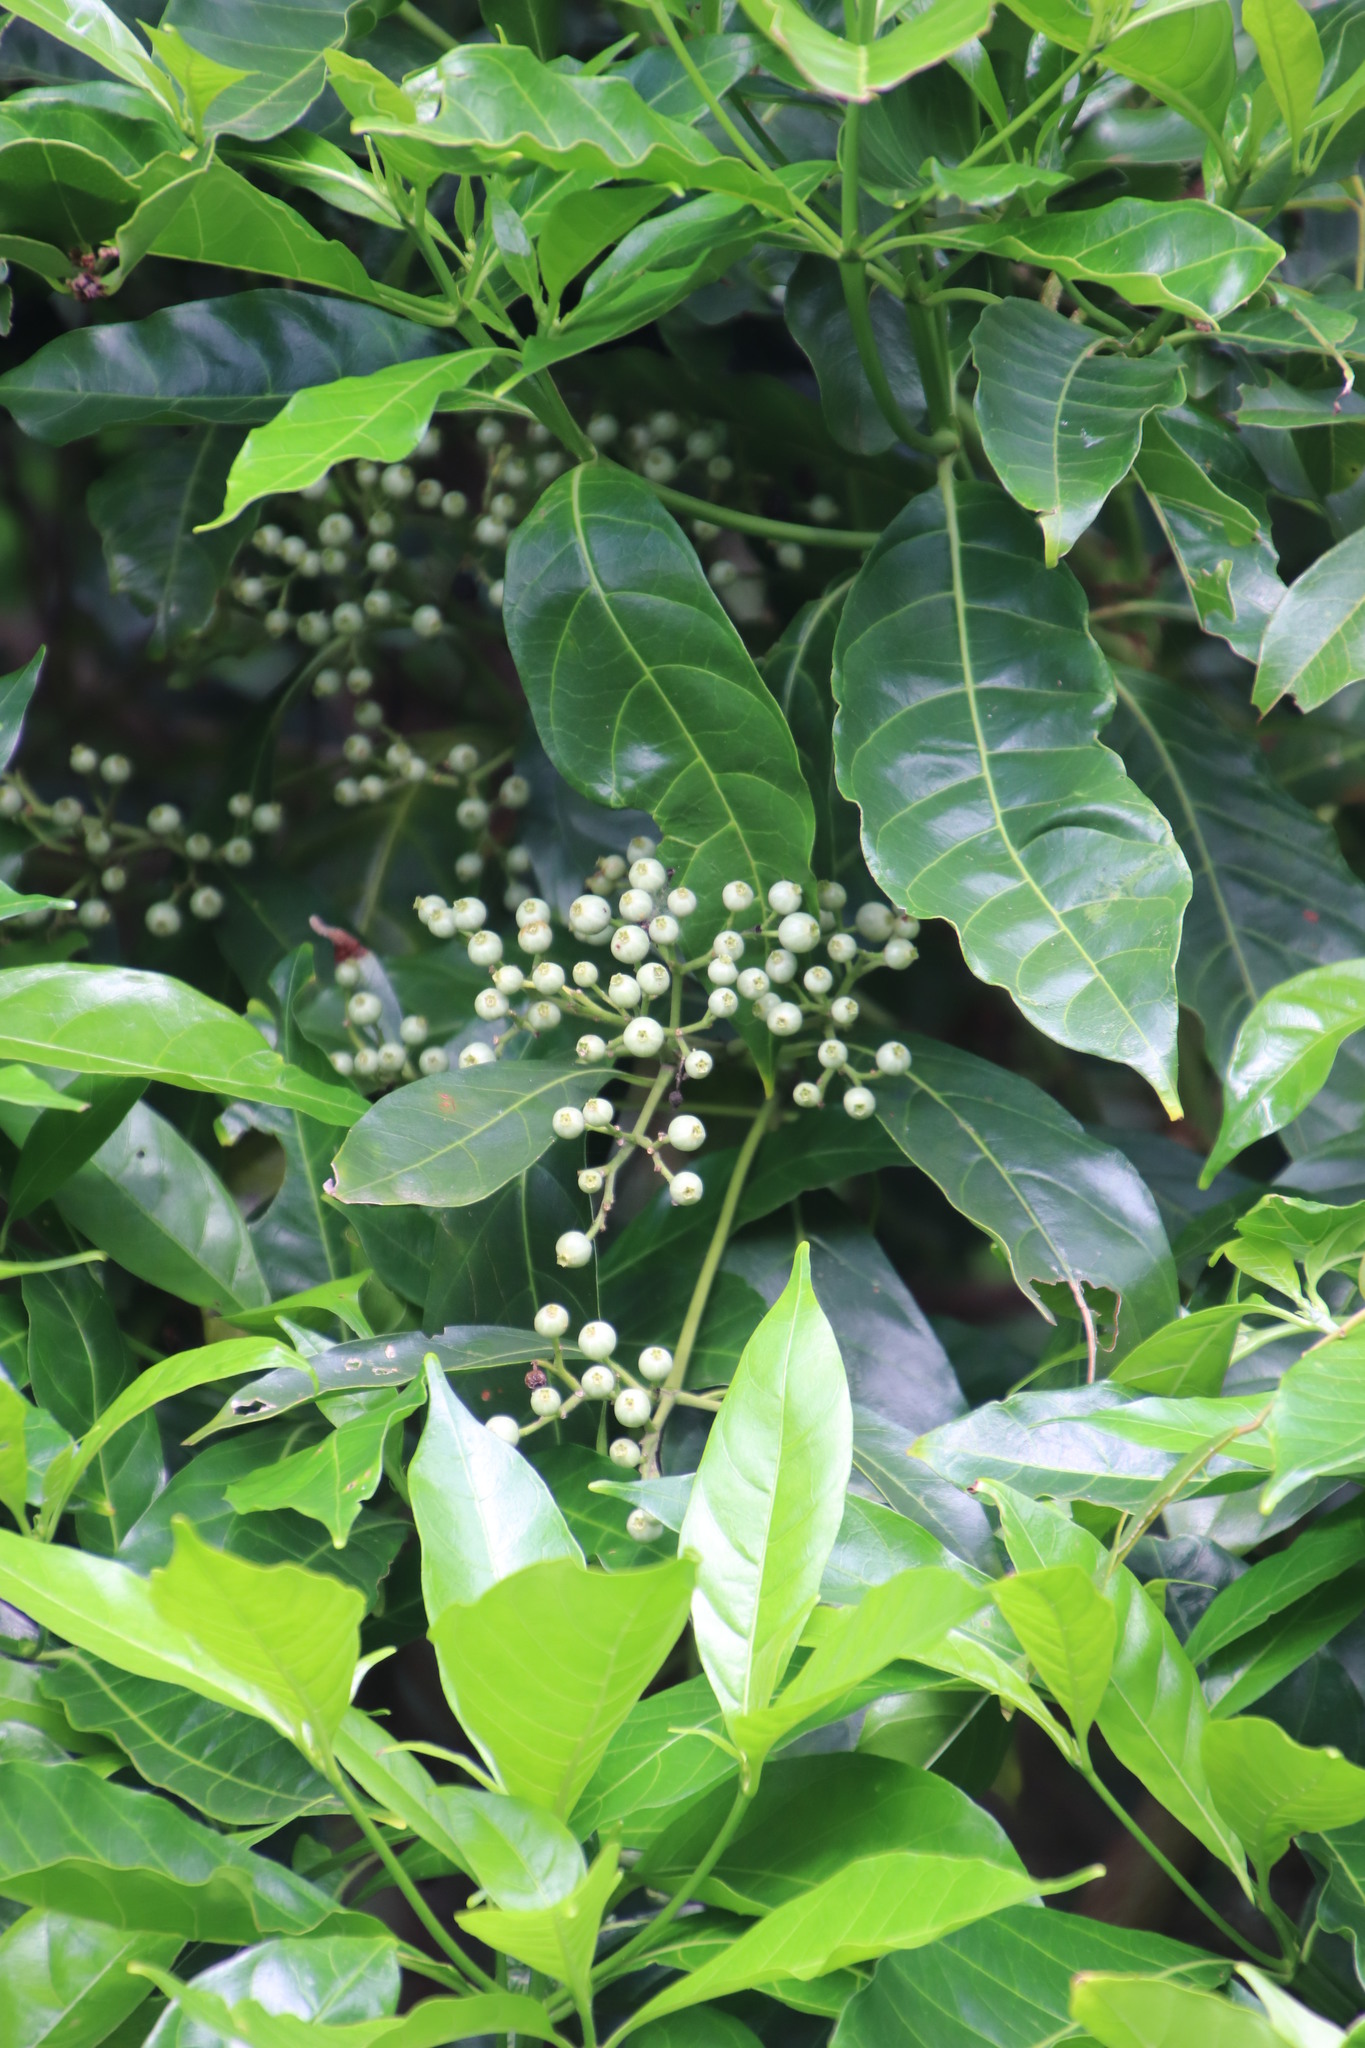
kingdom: Plantae
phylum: Tracheophyta
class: Magnoliopsida
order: Gentianales
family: Rubiaceae
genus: Tarenna
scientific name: Tarenna pavettoides
